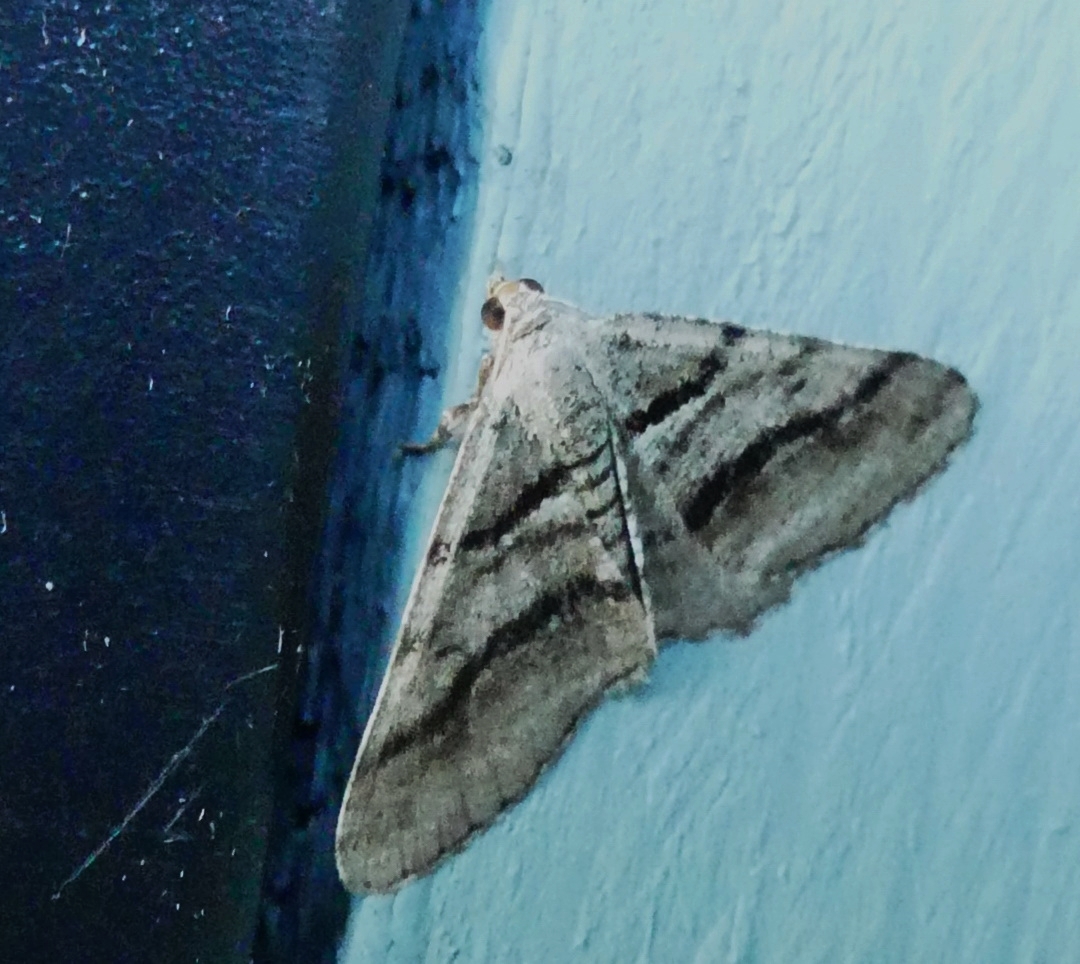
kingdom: Animalia
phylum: Arthropoda
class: Insecta
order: Lepidoptera
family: Geometridae
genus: Digrammia
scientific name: Digrammia continuata
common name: Curve-lined angle
